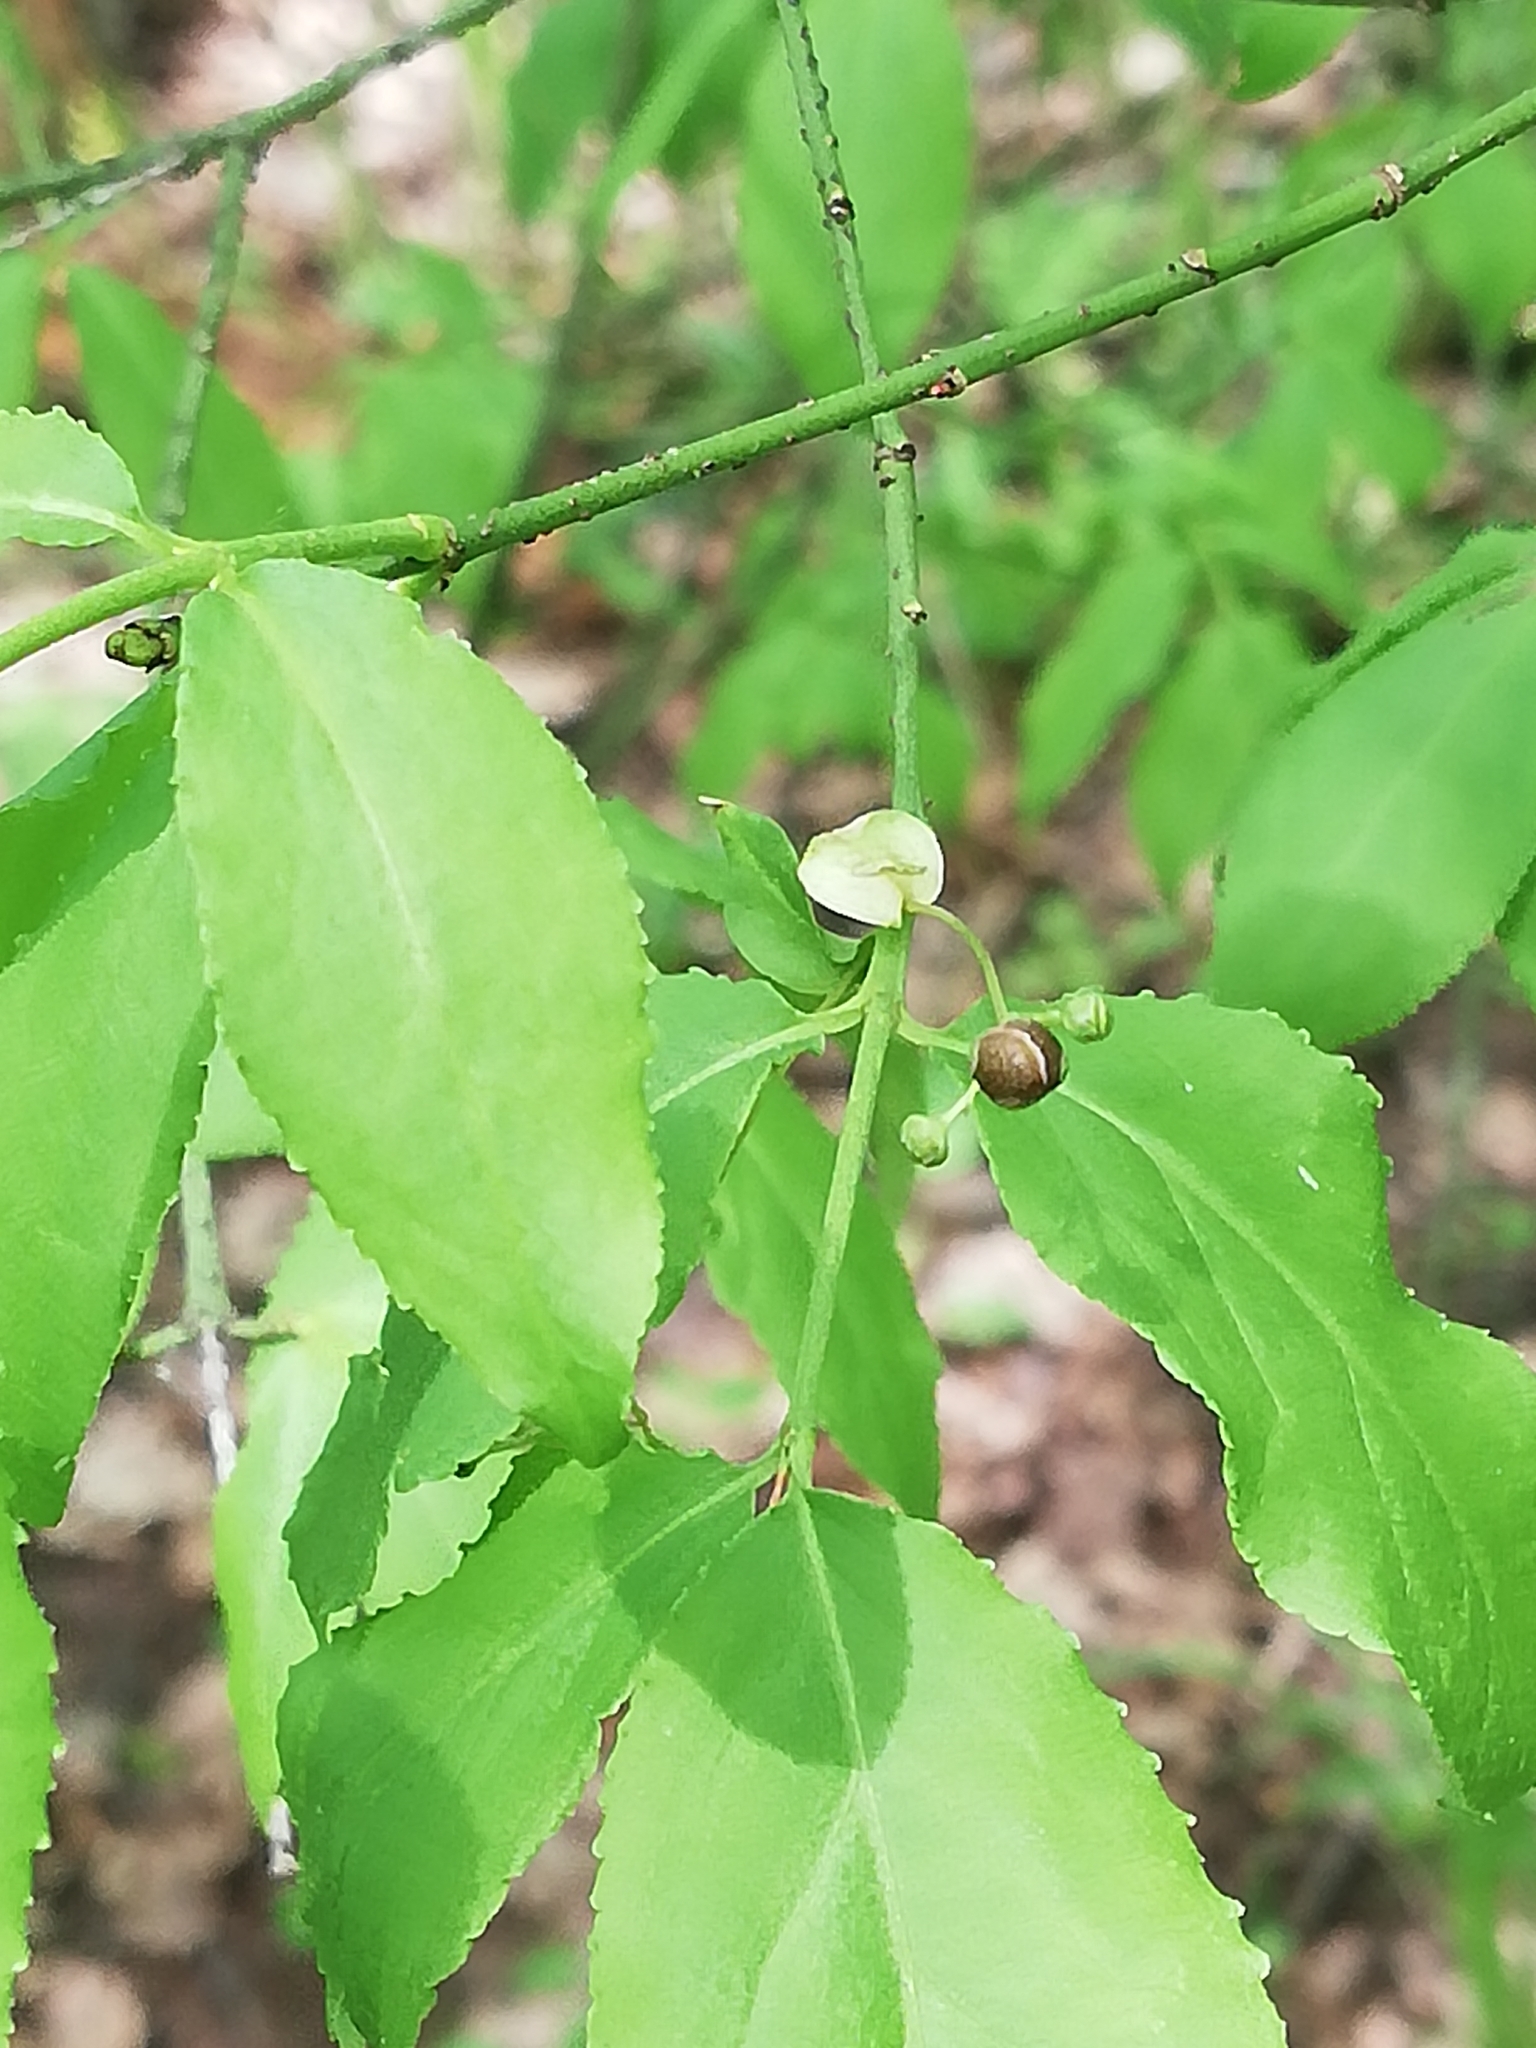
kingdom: Plantae
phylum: Tracheophyta
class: Magnoliopsida
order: Celastrales
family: Celastraceae
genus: Euonymus
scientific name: Euonymus verrucosus
